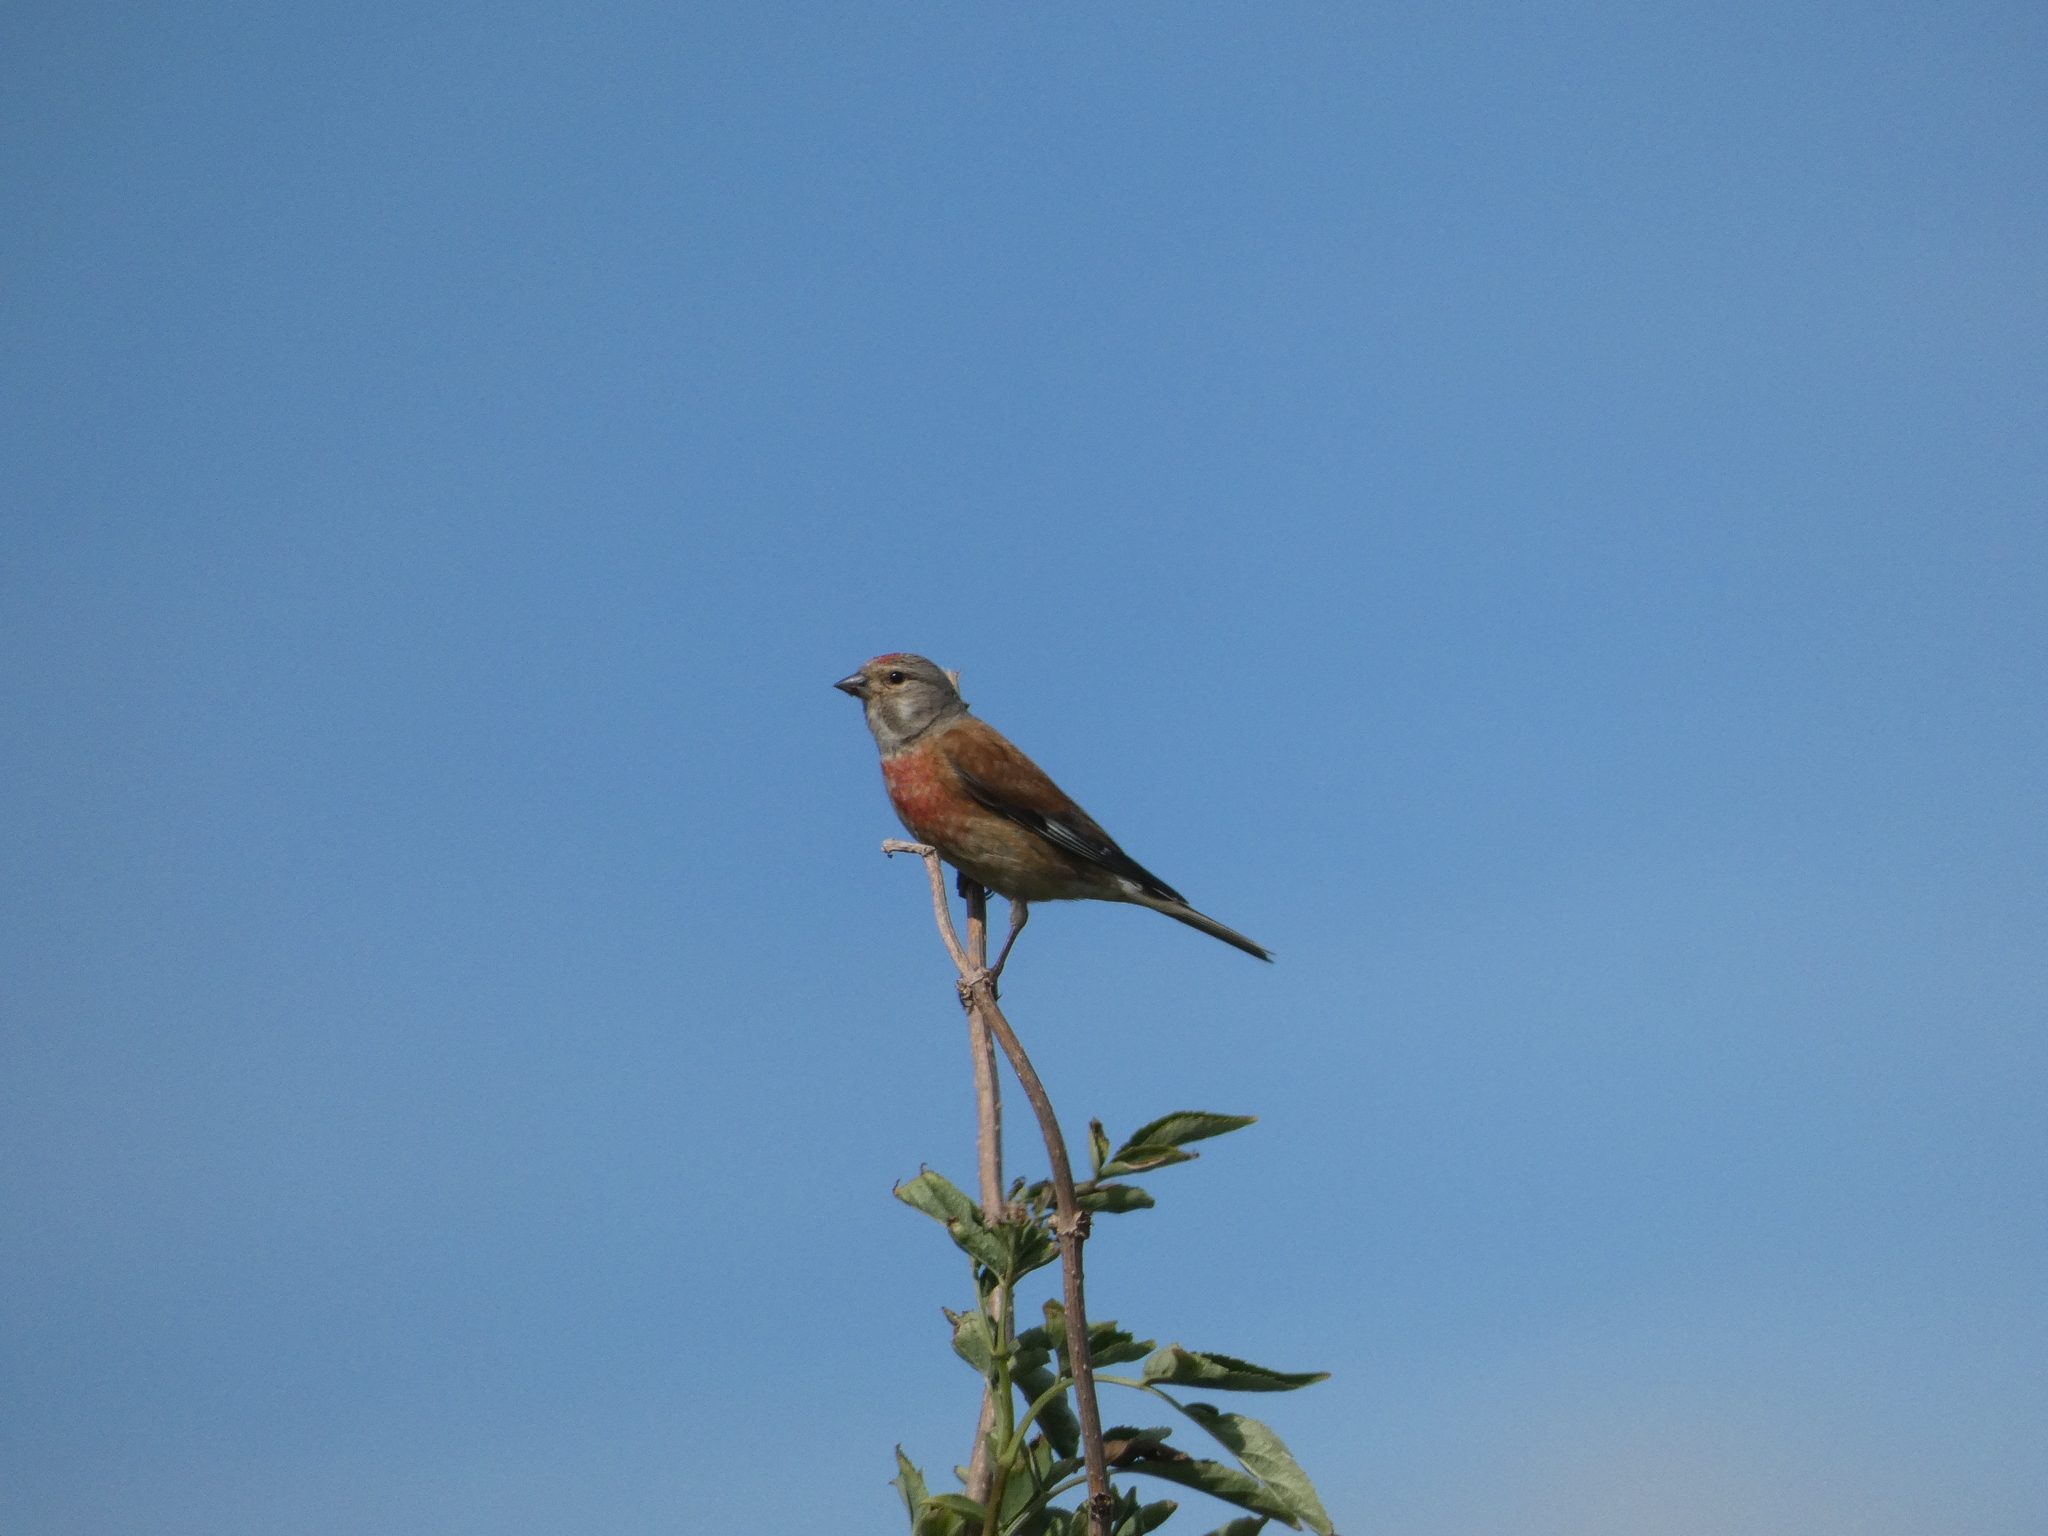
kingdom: Animalia
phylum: Chordata
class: Aves
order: Passeriformes
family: Fringillidae
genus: Linaria
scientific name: Linaria cannabina
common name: Common linnet
